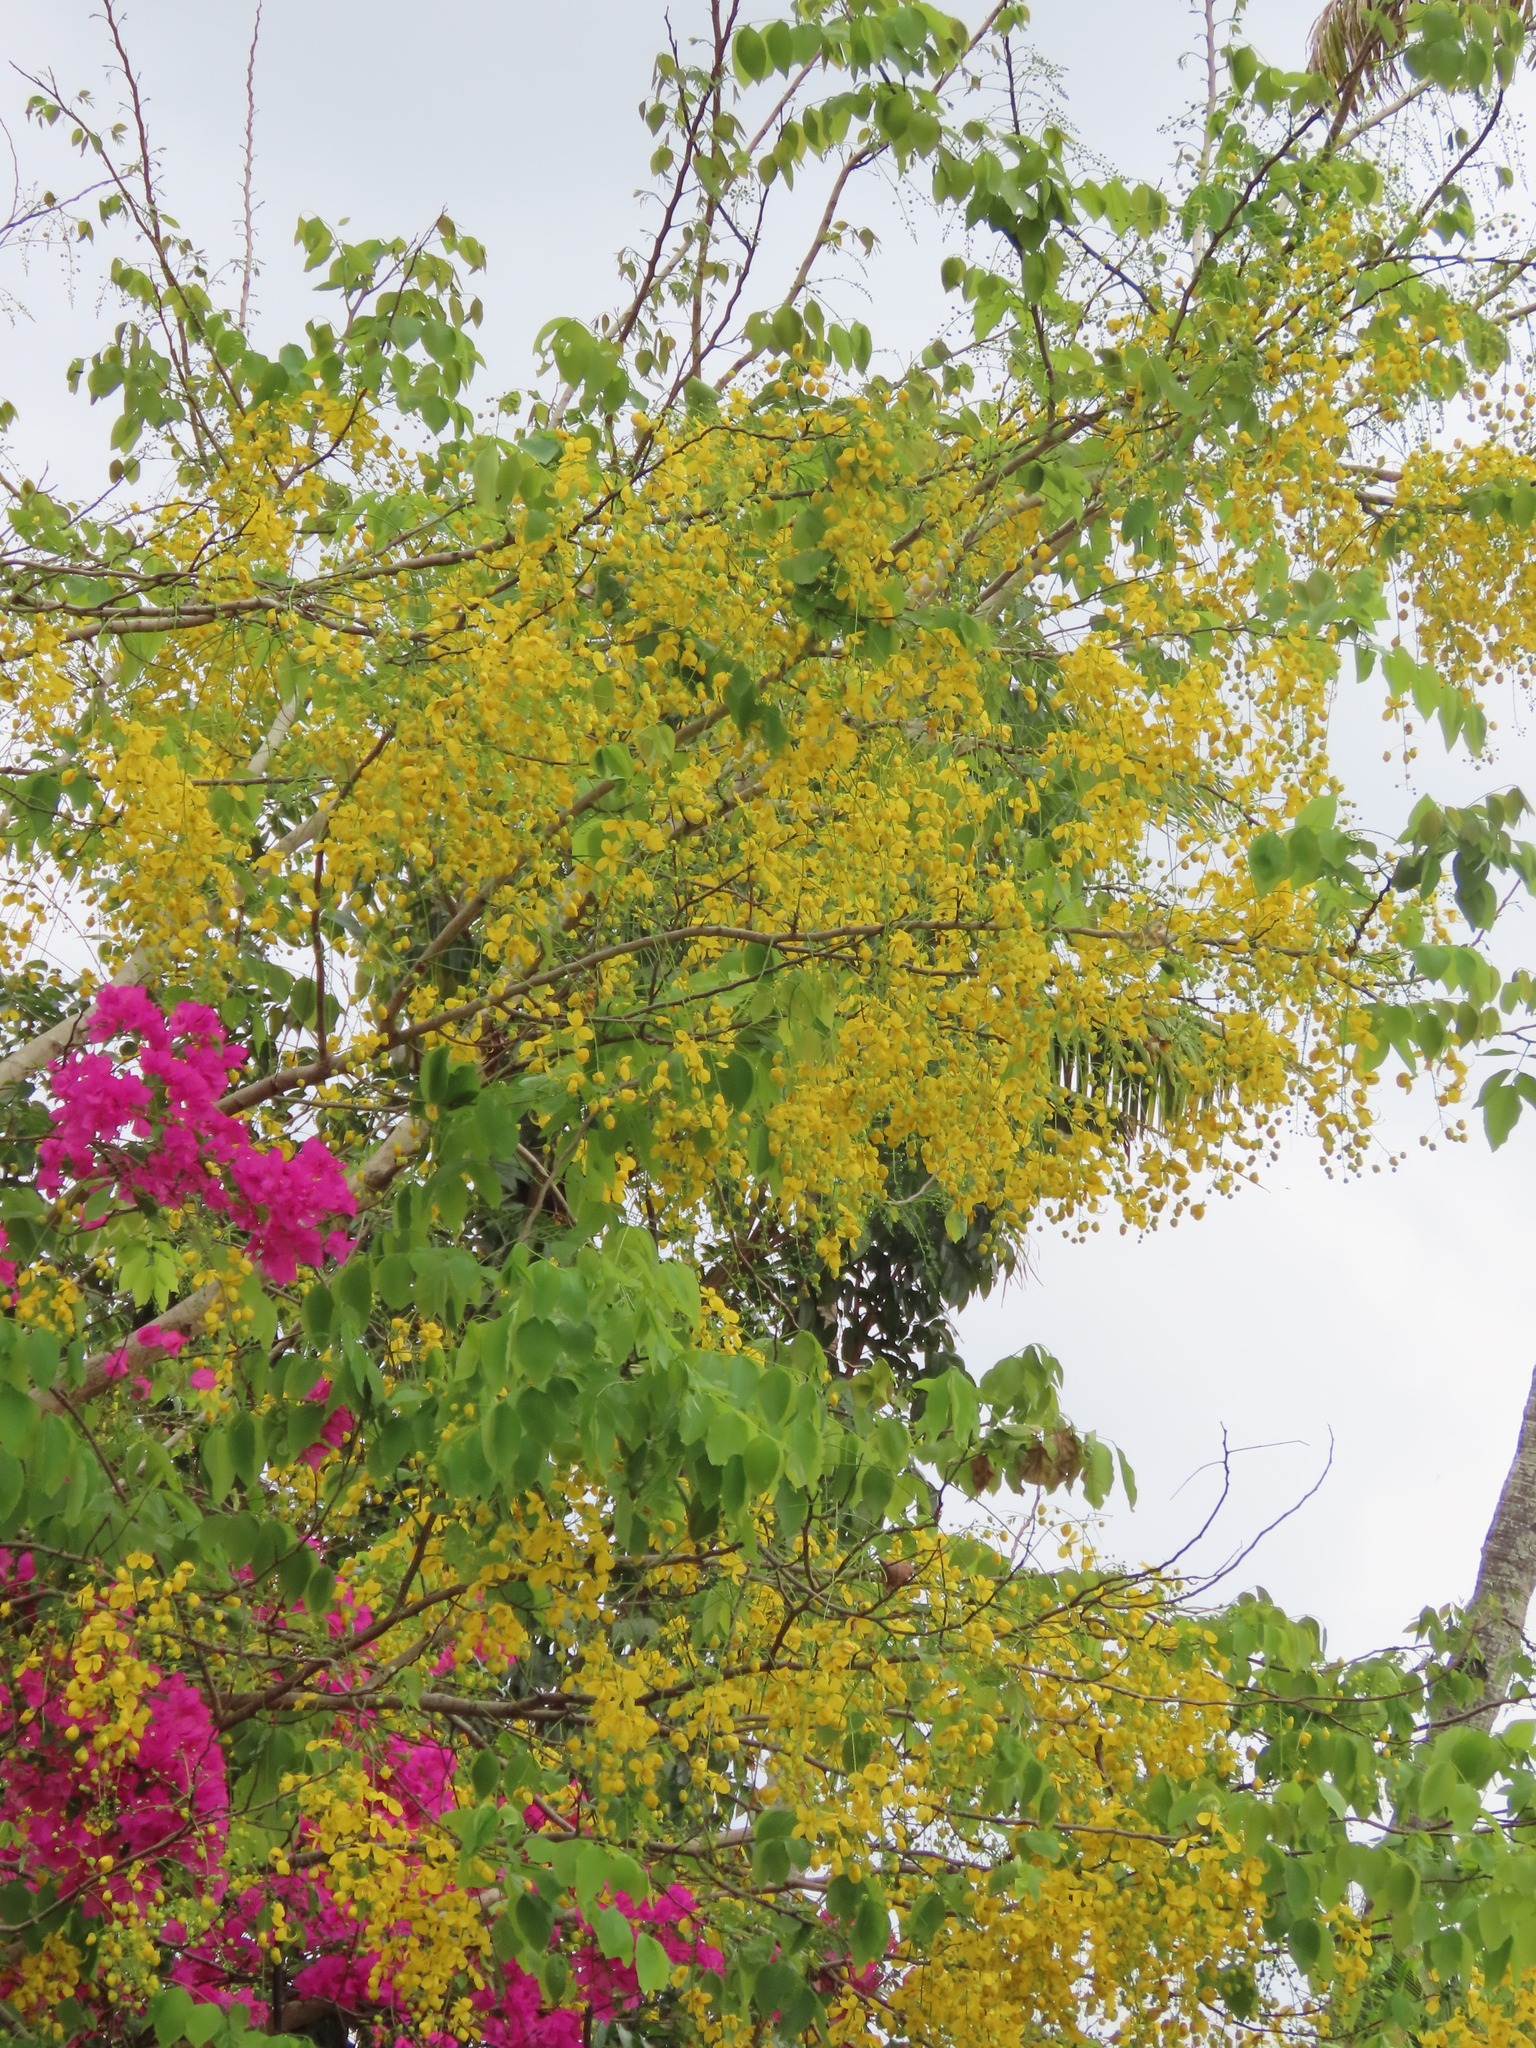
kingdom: Plantae
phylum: Tracheophyta
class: Magnoliopsida
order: Fabales
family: Fabaceae
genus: Cassia
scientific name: Cassia fistula
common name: Golden shower
